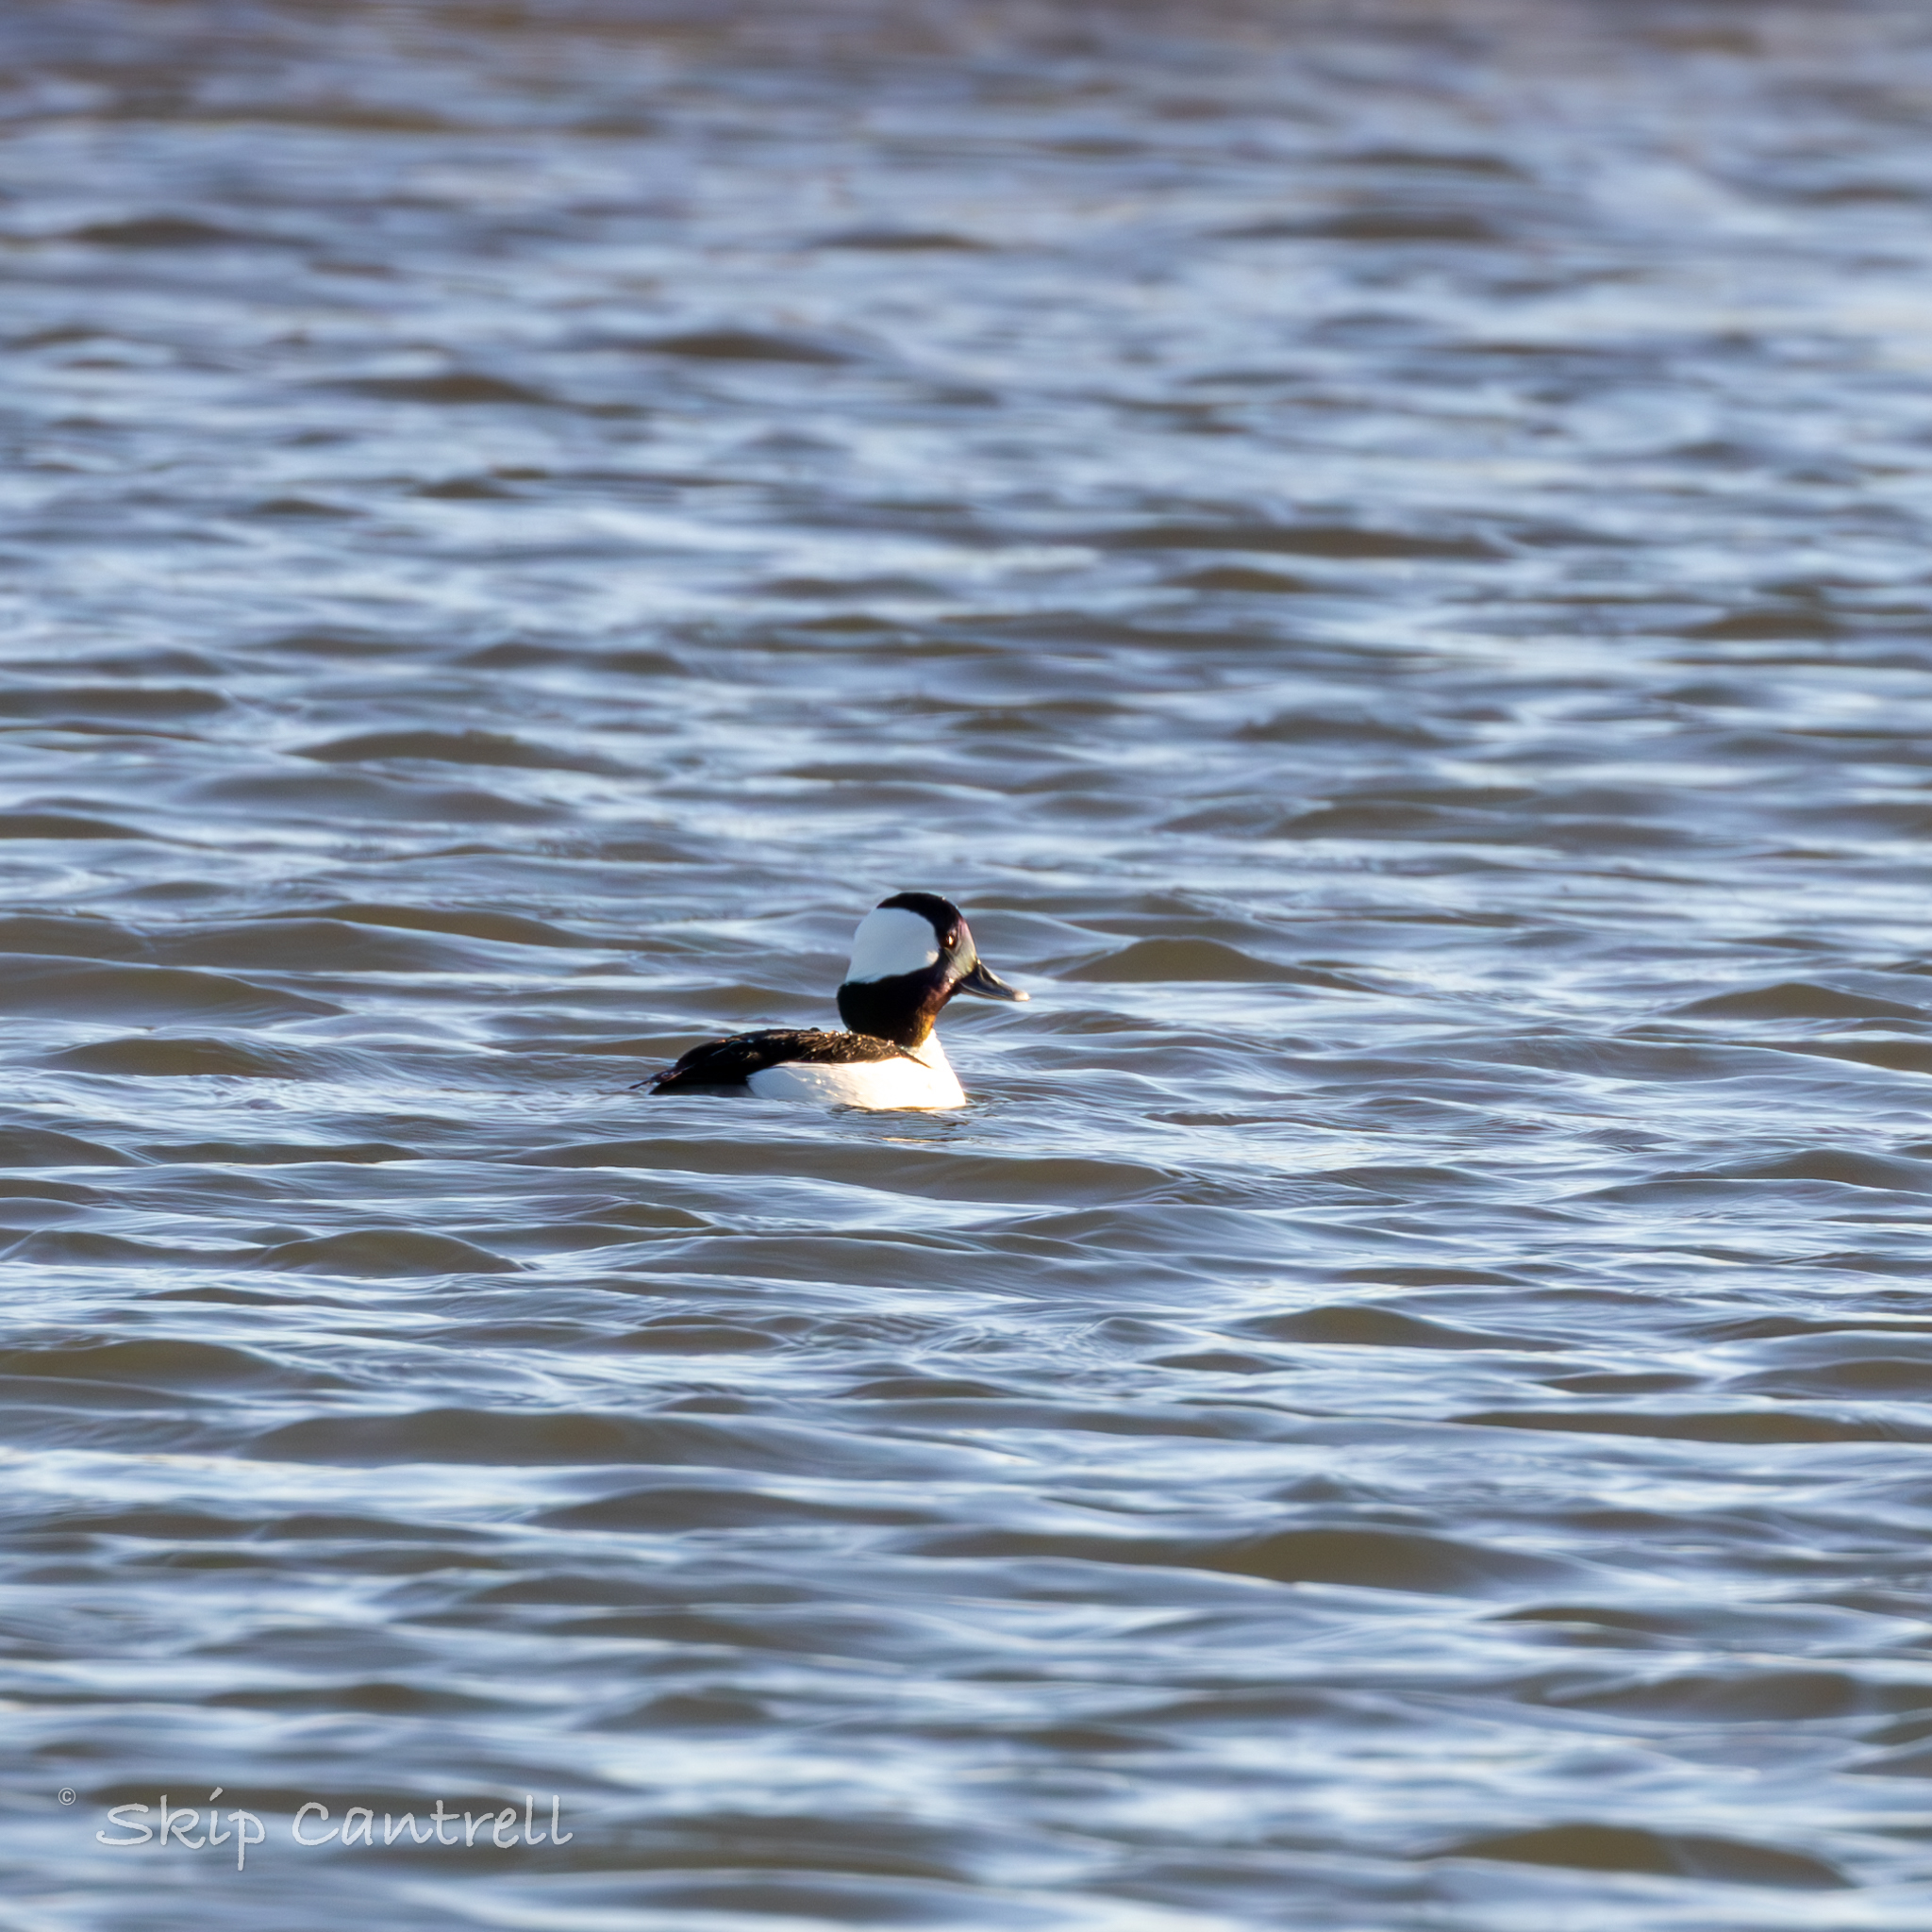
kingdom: Animalia
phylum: Chordata
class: Aves
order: Anseriformes
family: Anatidae
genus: Bucephala
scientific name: Bucephala albeola
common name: Bufflehead
